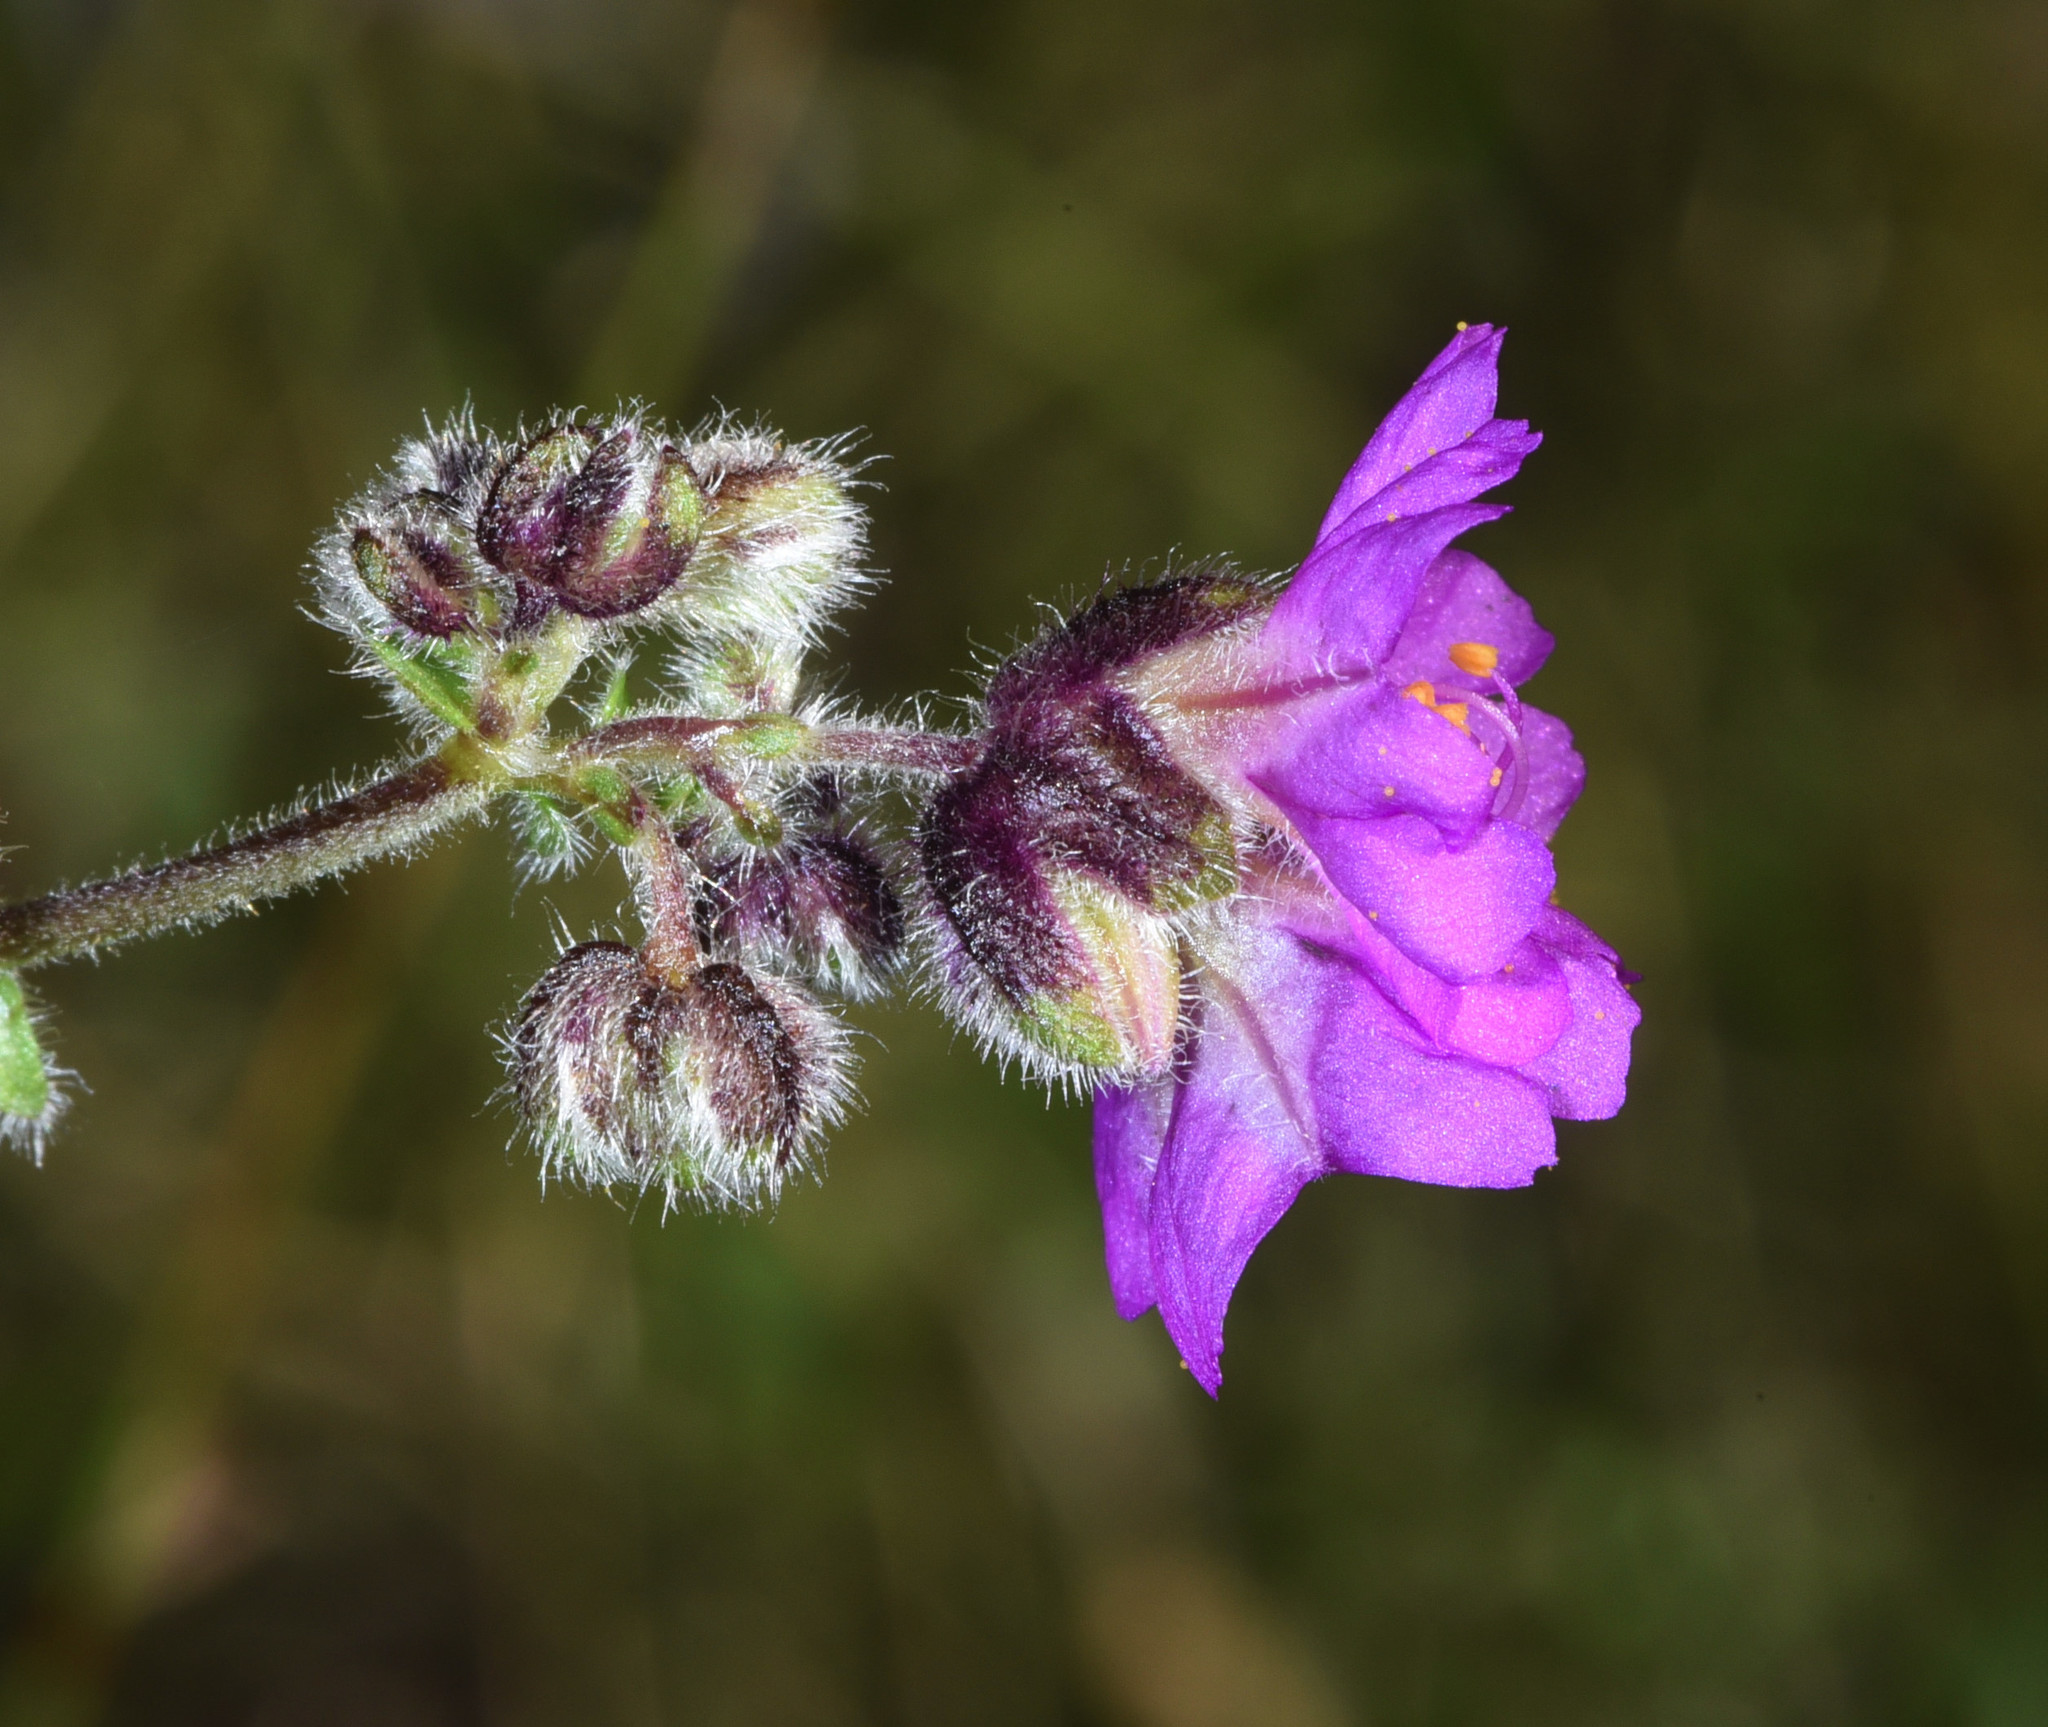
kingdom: Plantae
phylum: Tracheophyta
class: Magnoliopsida
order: Caryophyllales
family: Nyctaginaceae
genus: Mirabilis
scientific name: Mirabilis melanotricha
